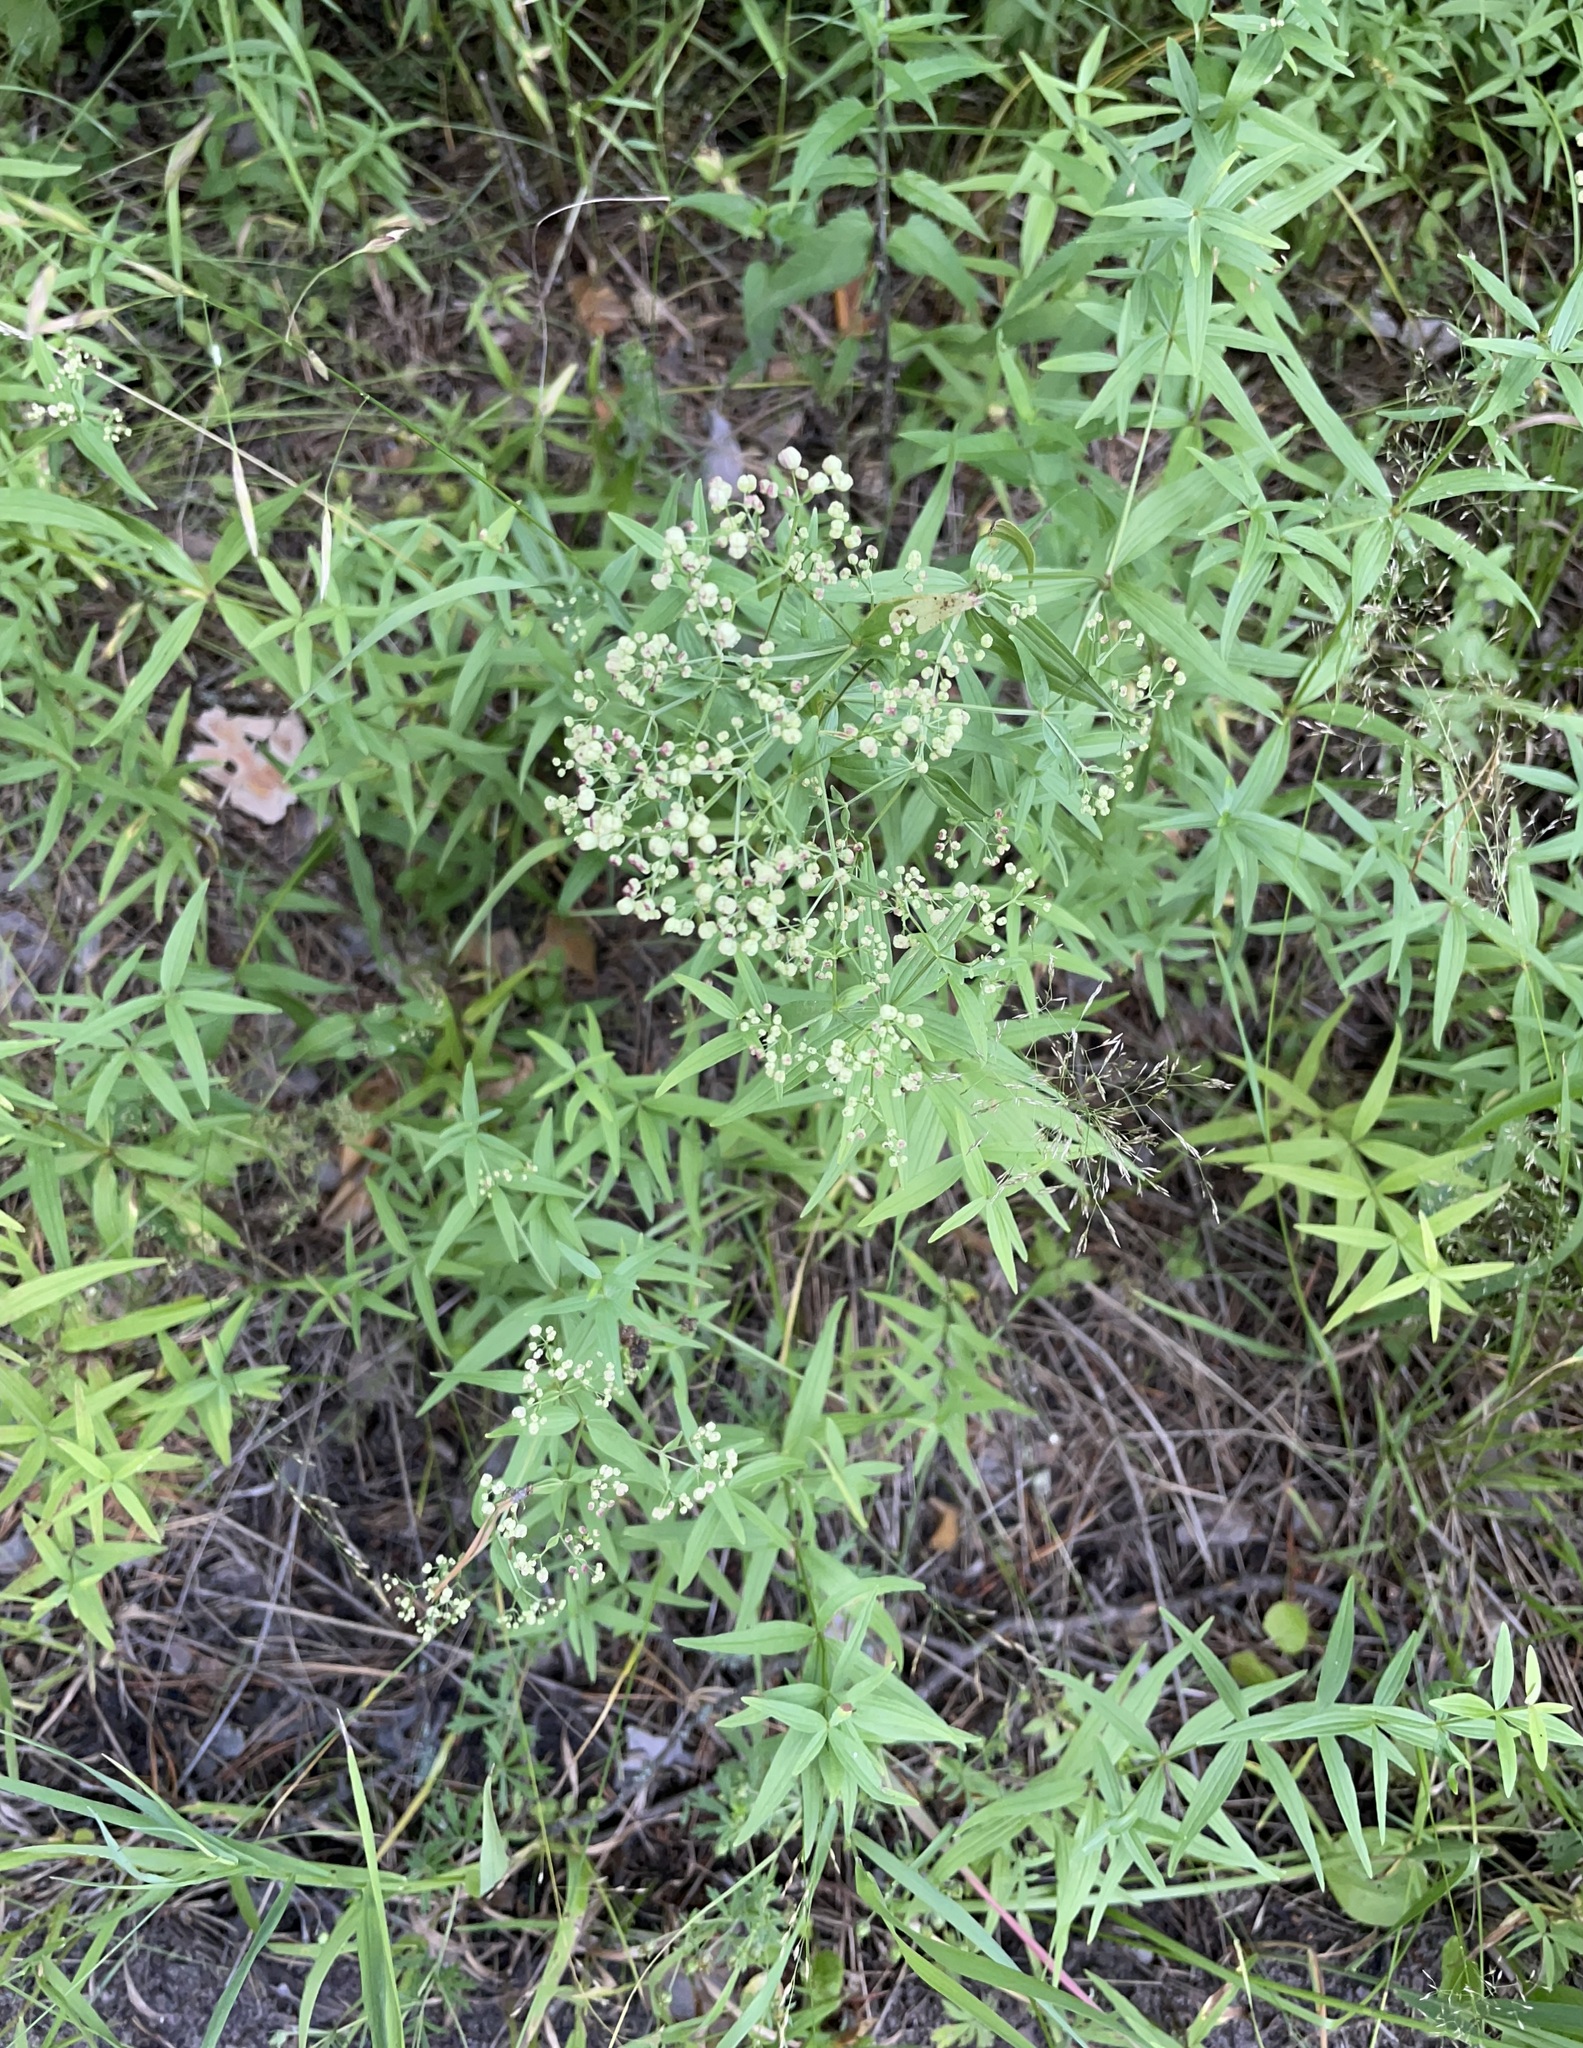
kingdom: Plantae
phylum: Tracheophyta
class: Magnoliopsida
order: Gentianales
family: Rubiaceae
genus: Galium
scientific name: Galium boreale
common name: Northern bedstraw
